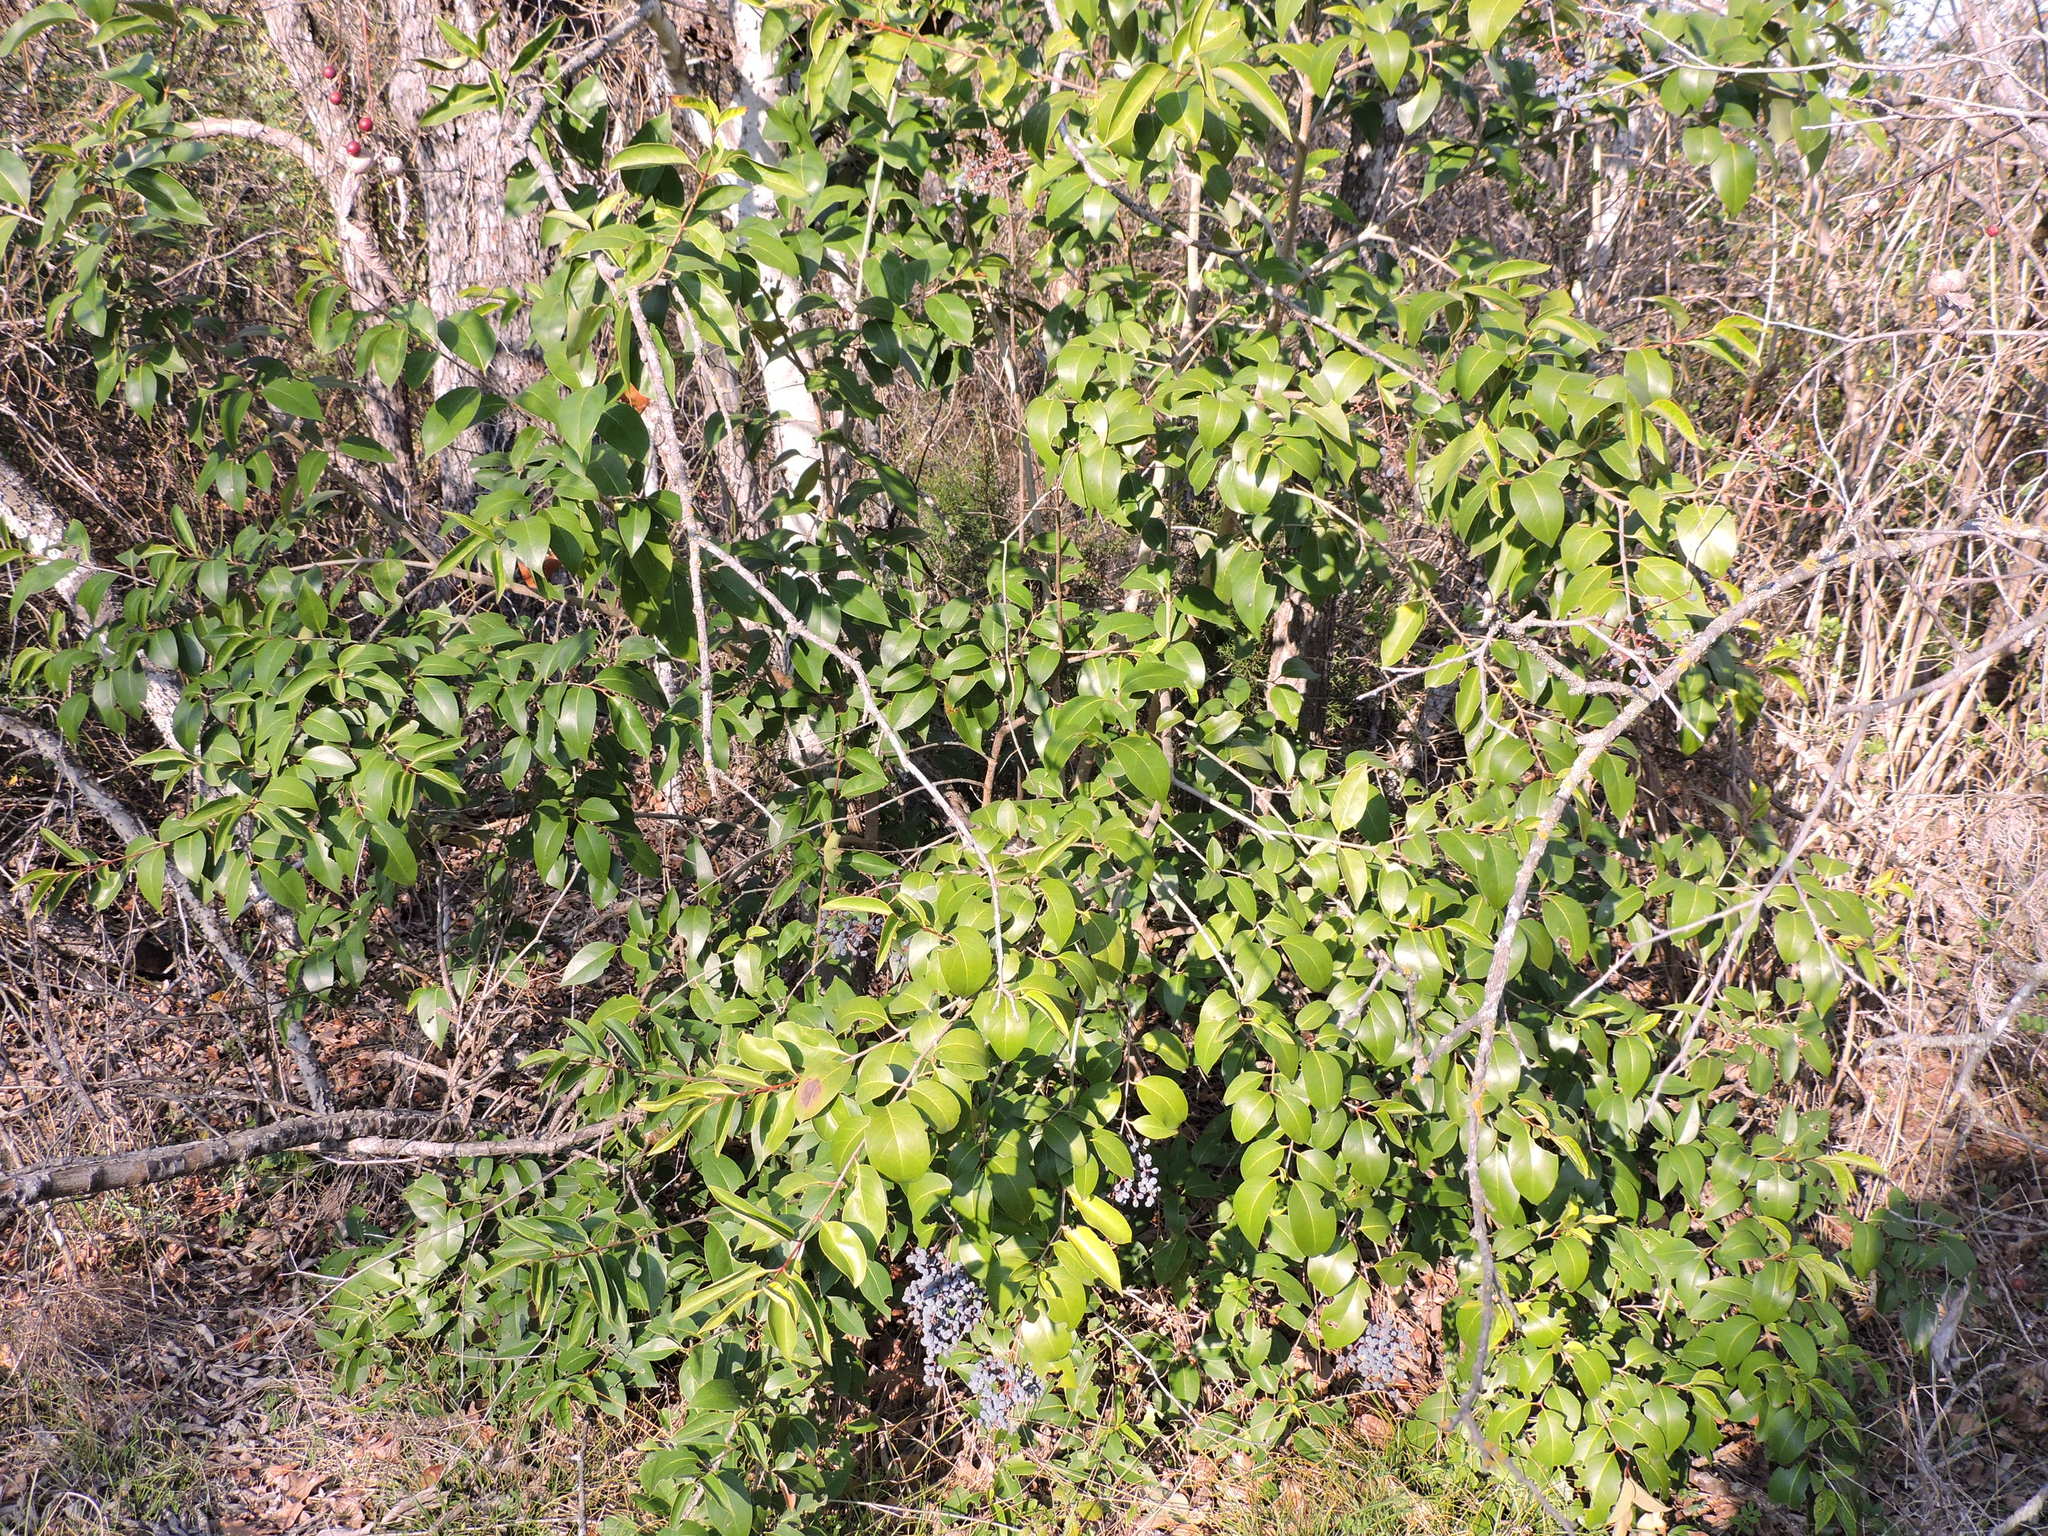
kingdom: Plantae
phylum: Tracheophyta
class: Magnoliopsida
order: Lamiales
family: Oleaceae
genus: Ligustrum
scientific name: Ligustrum lucidum
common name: Glossy privet
